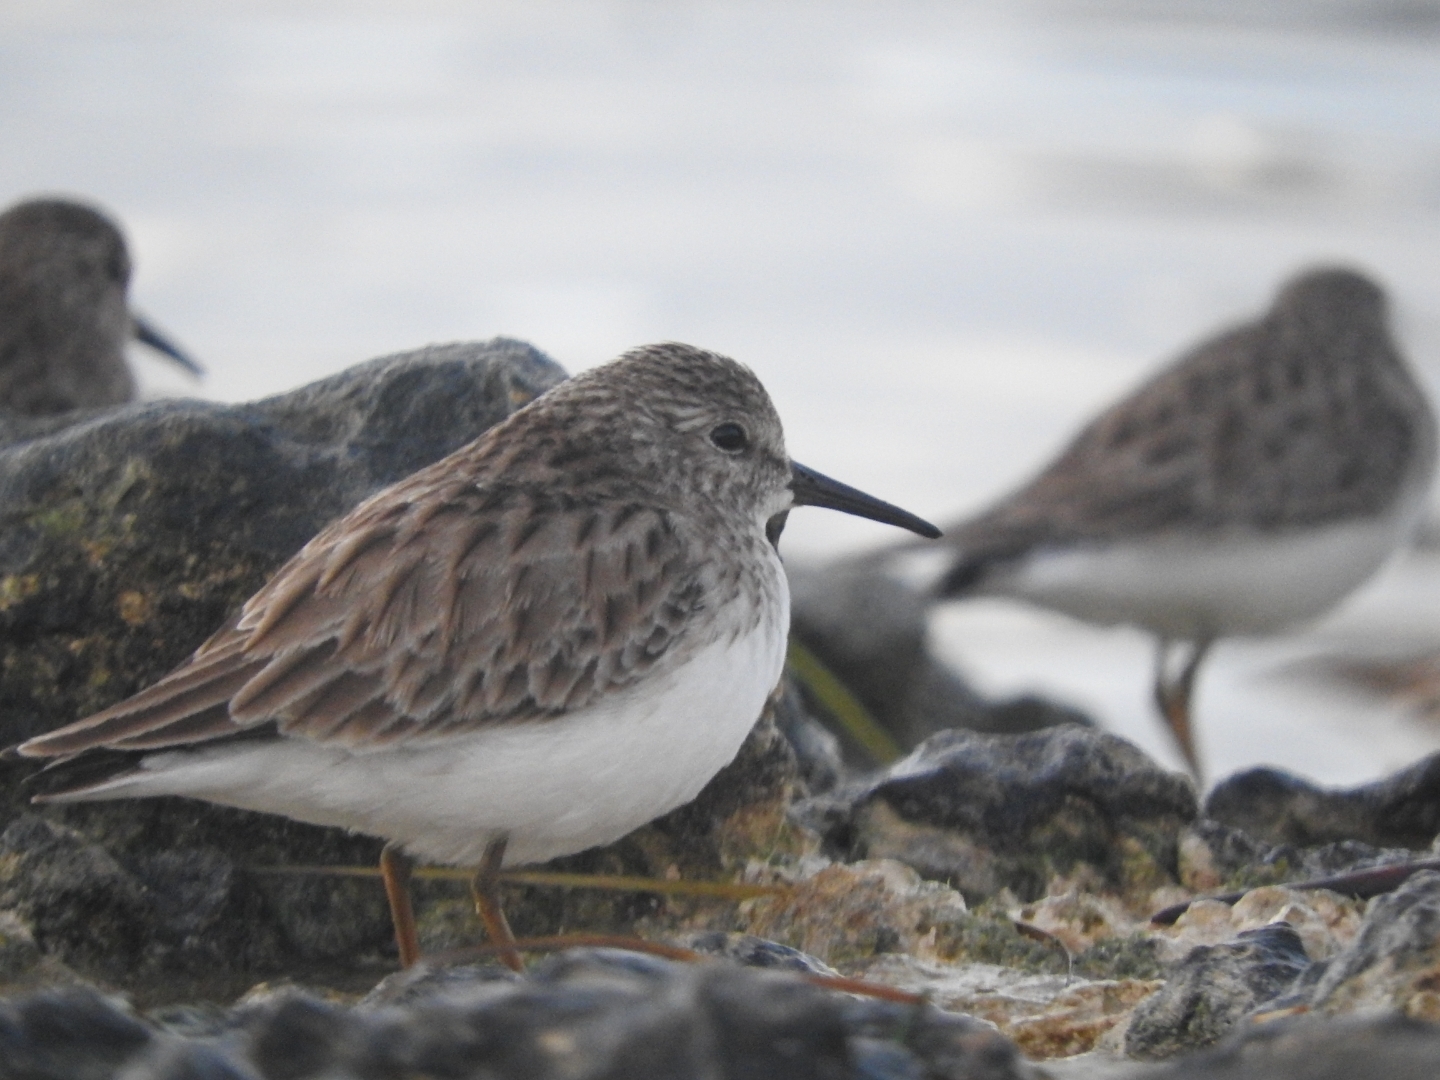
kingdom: Animalia
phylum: Chordata
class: Aves
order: Charadriiformes
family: Scolopacidae
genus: Calidris
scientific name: Calidris minutilla
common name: Least sandpiper
